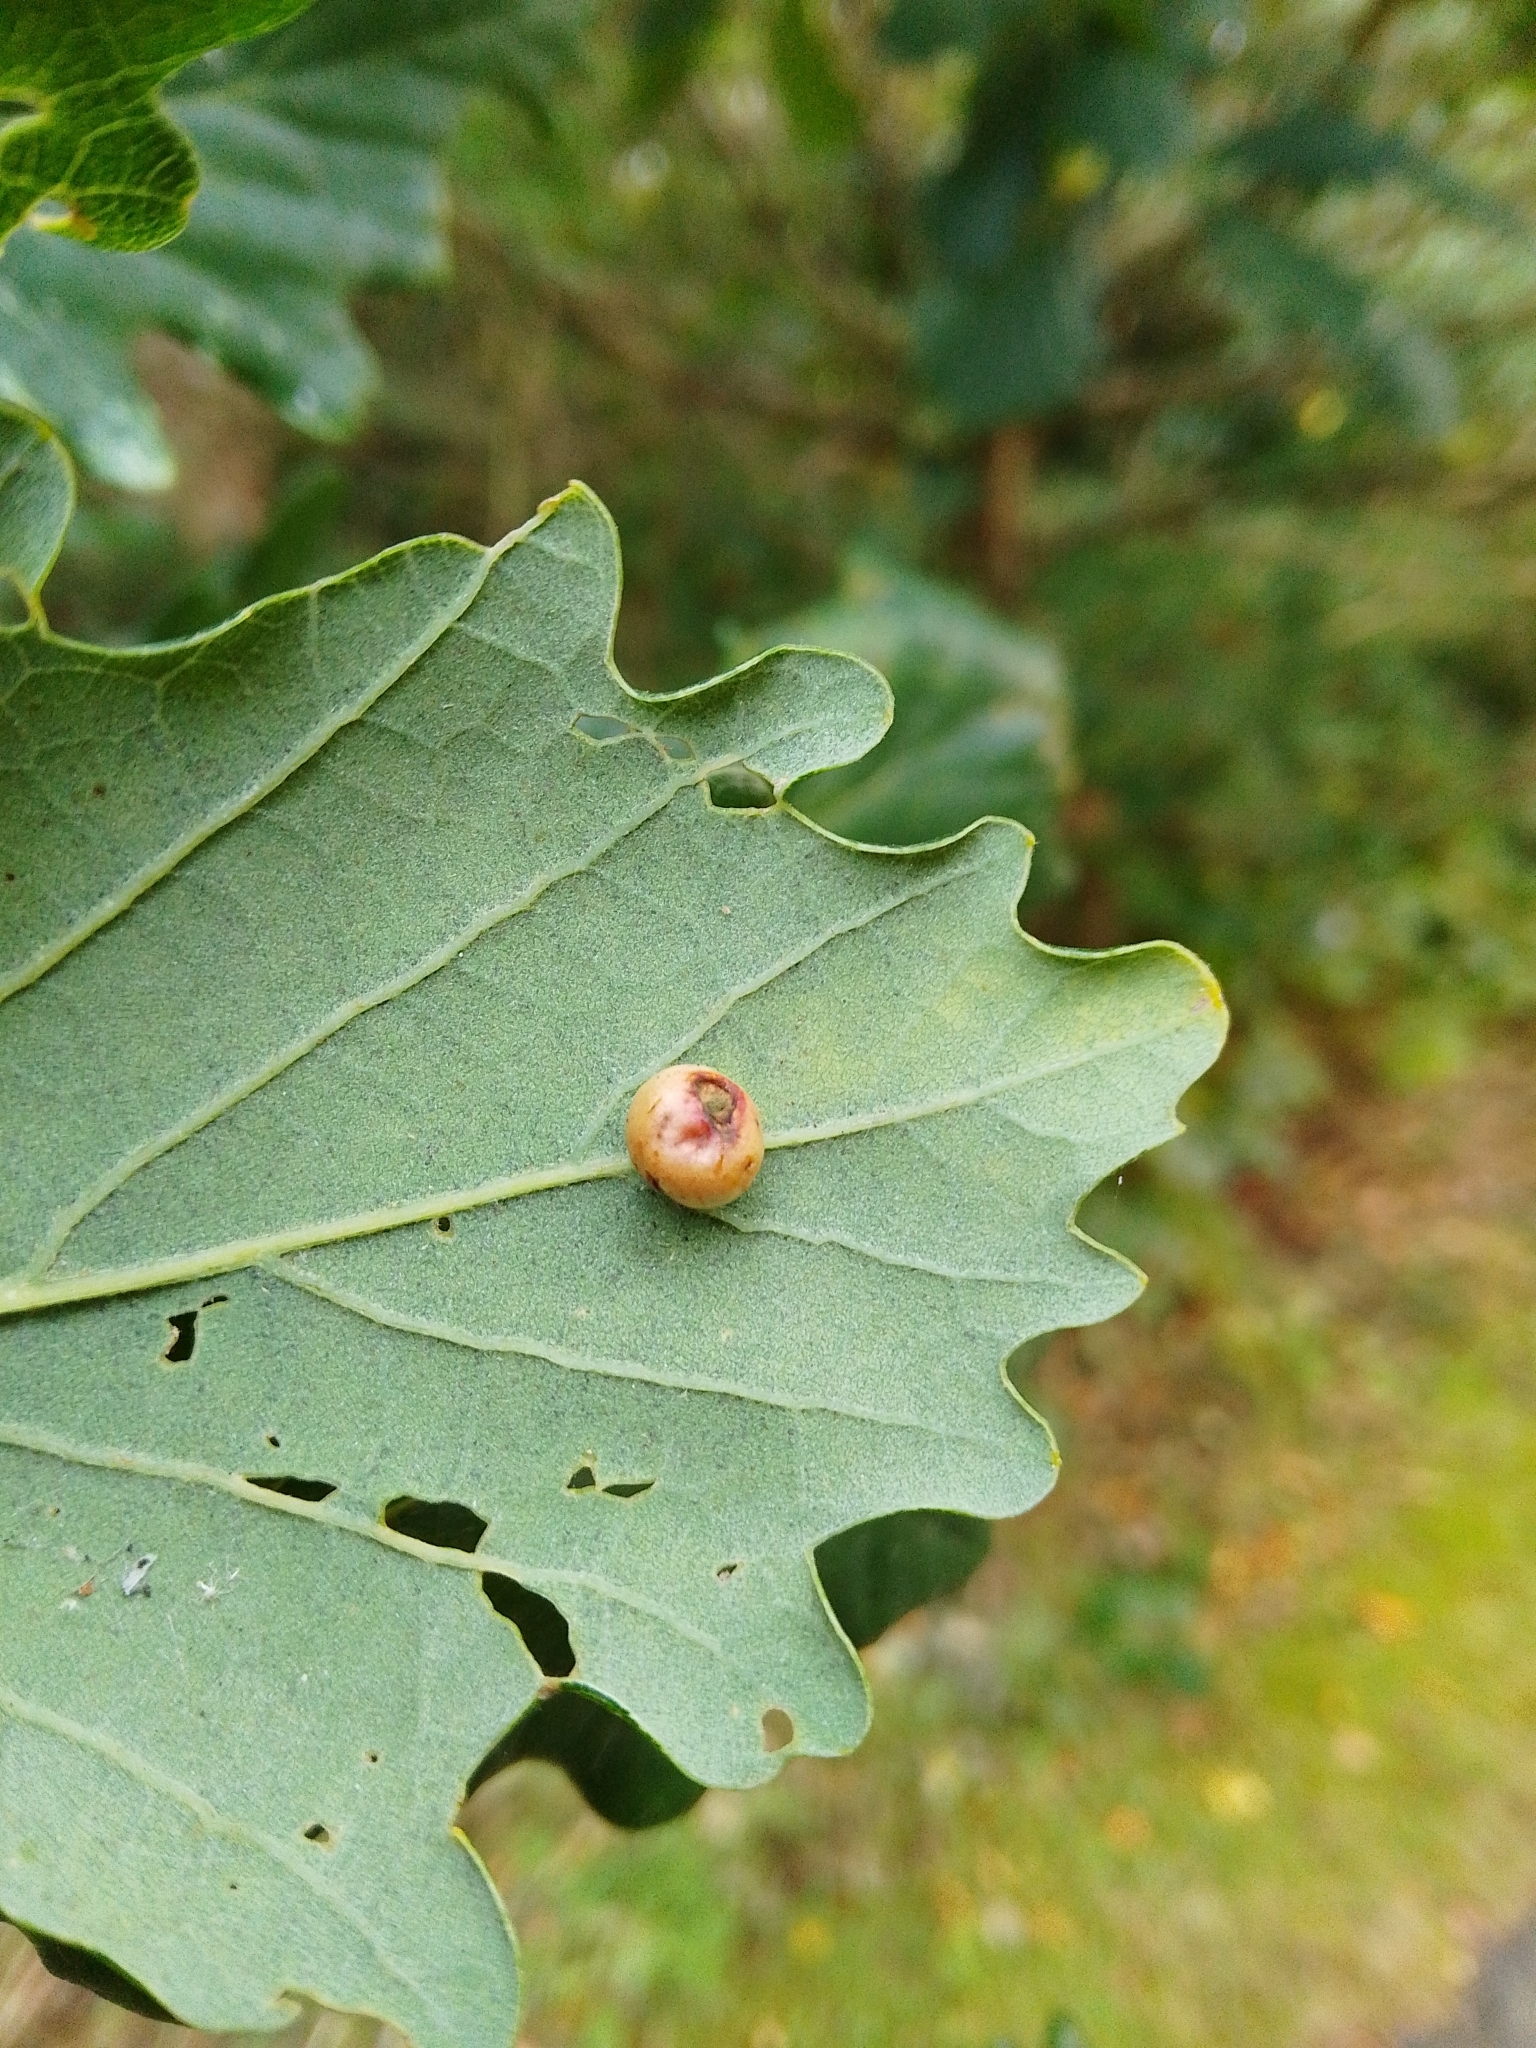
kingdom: Animalia
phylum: Arthropoda
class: Insecta
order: Hymenoptera
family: Cynipidae
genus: Cynips
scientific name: Cynips divisa
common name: Red currant gall
